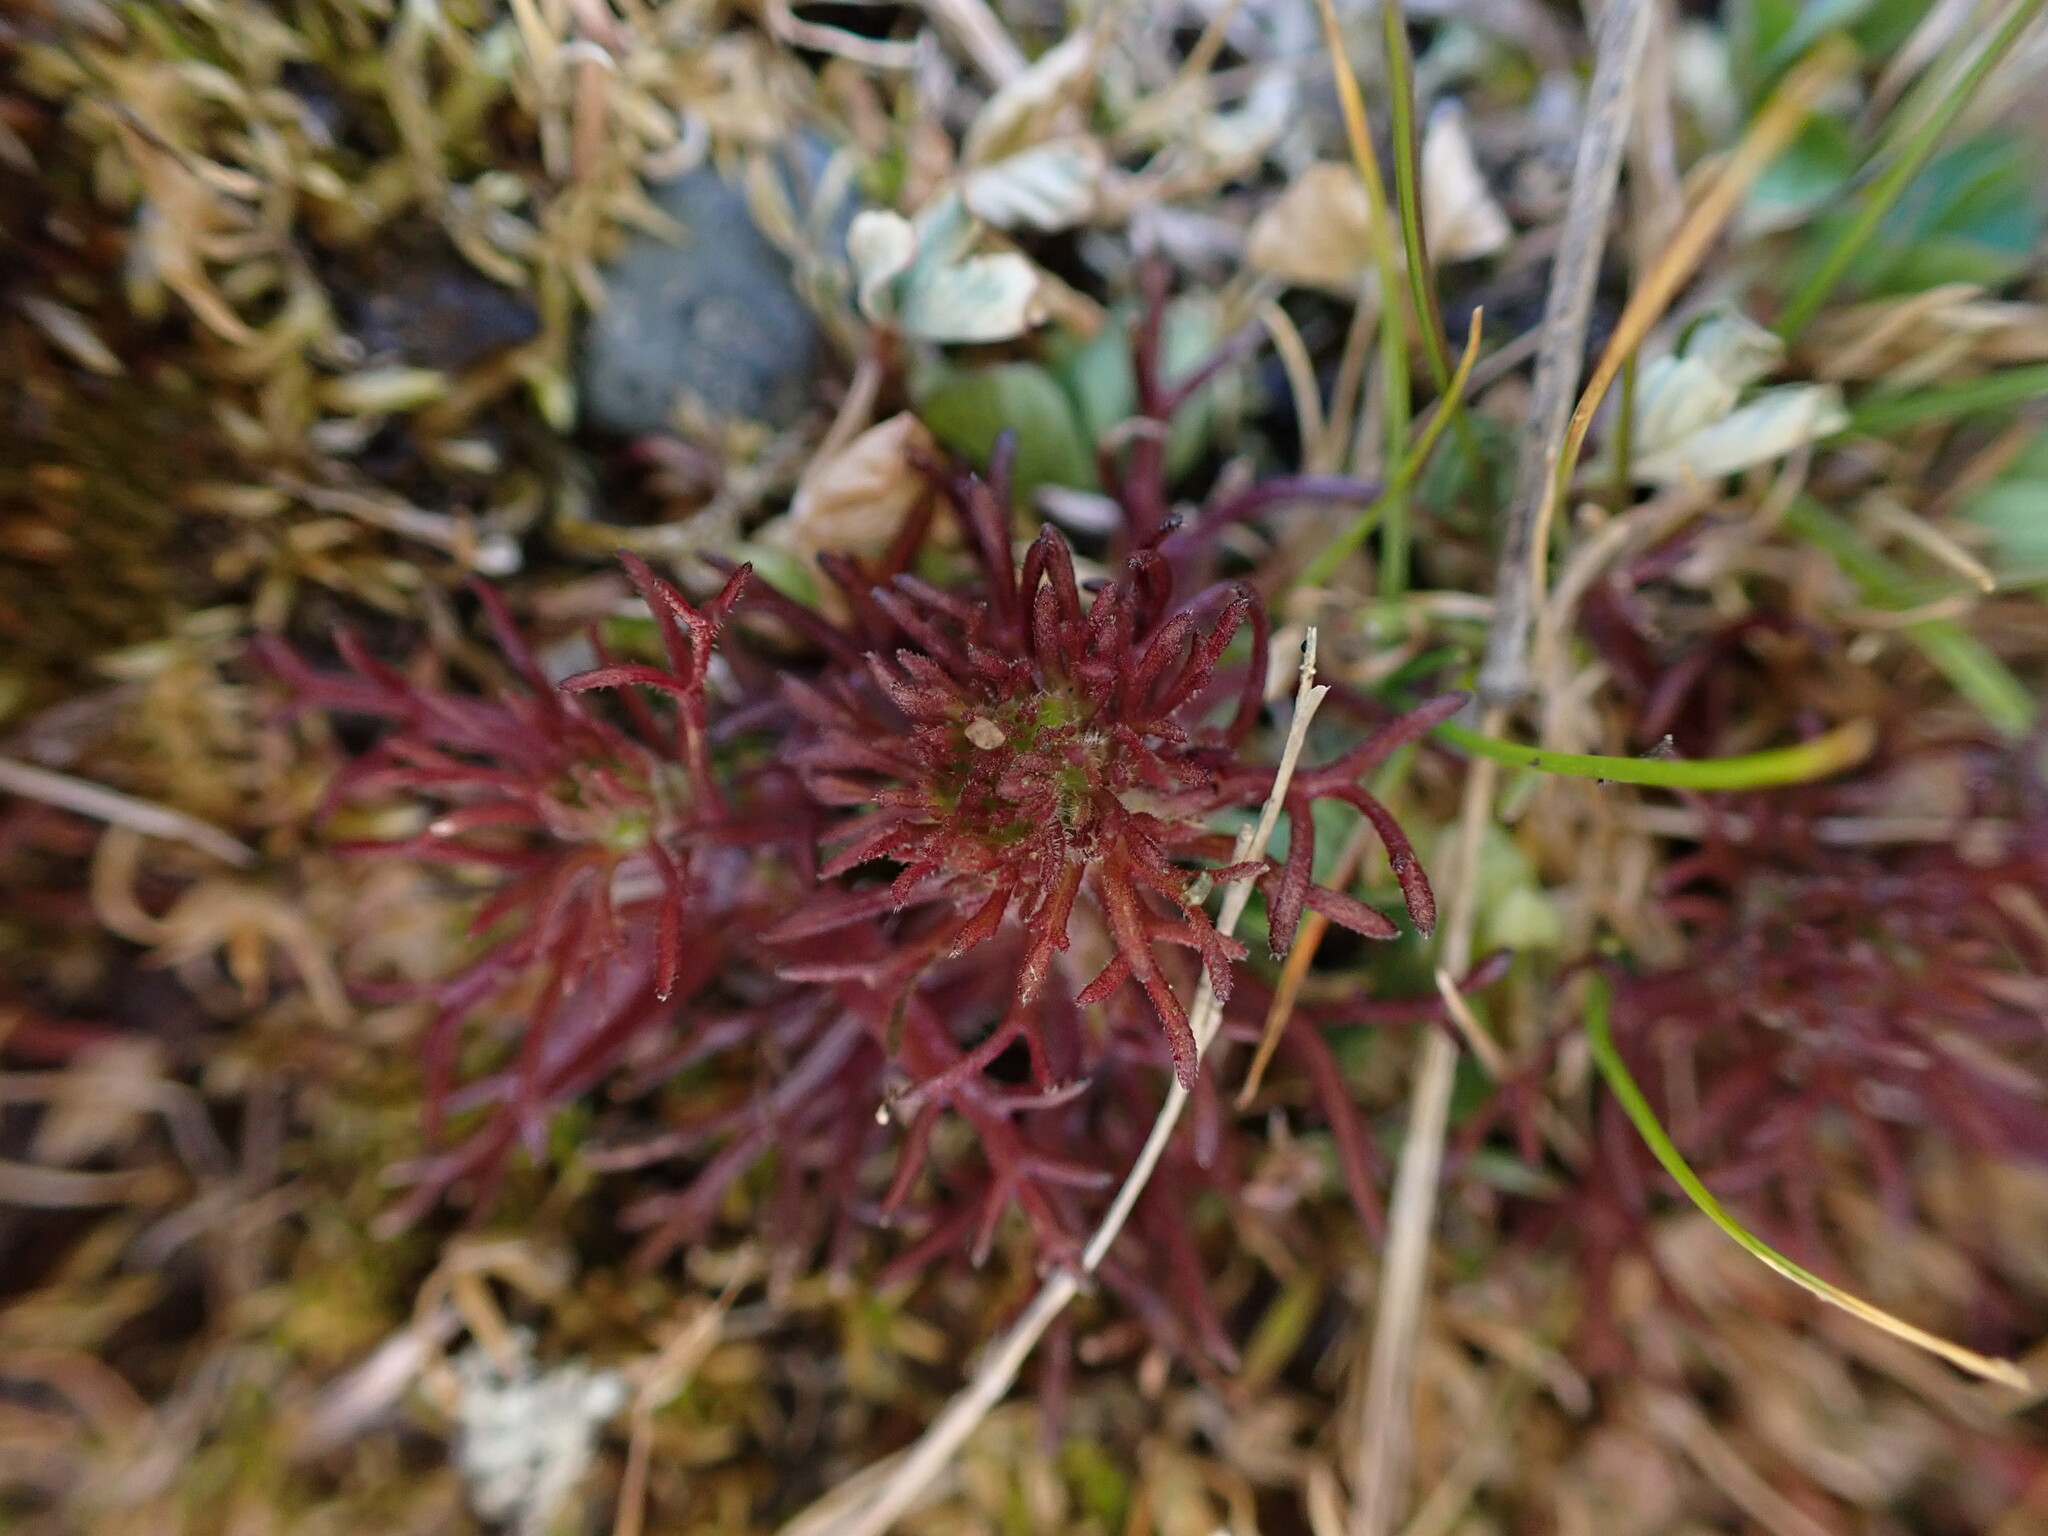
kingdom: Plantae
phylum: Tracheophyta
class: Magnoliopsida
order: Lamiales
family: Orobanchaceae
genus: Triphysaria
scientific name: Triphysaria pusilla
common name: Dwarf false owl-clover
